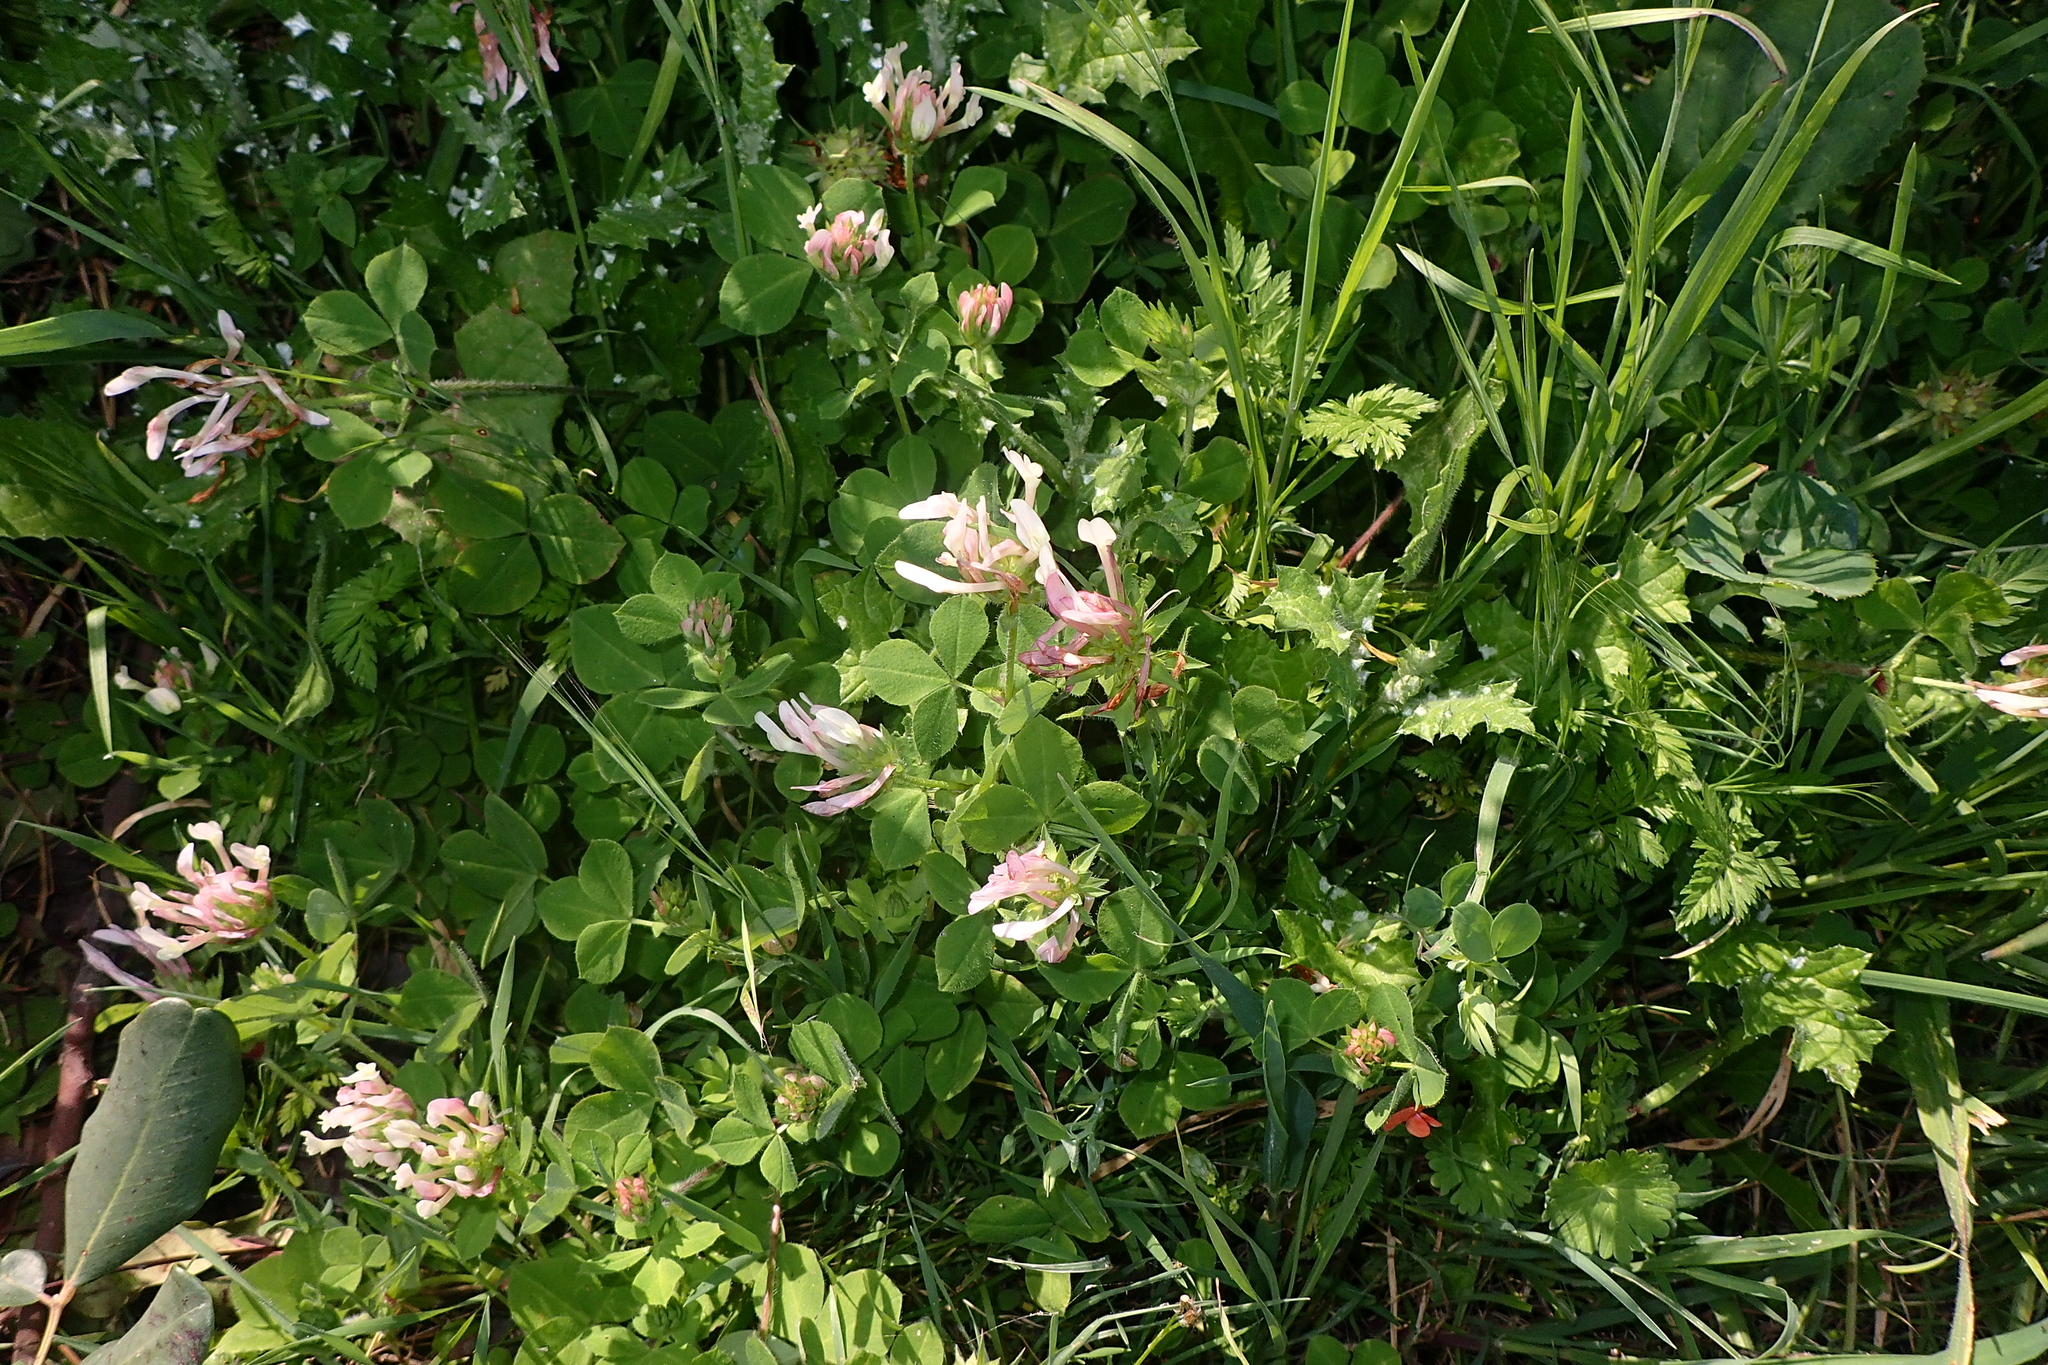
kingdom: Plantae
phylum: Tracheophyta
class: Magnoliopsida
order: Fabales
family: Fabaceae
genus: Trifolium
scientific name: Trifolium clypeatum
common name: Shield clover
